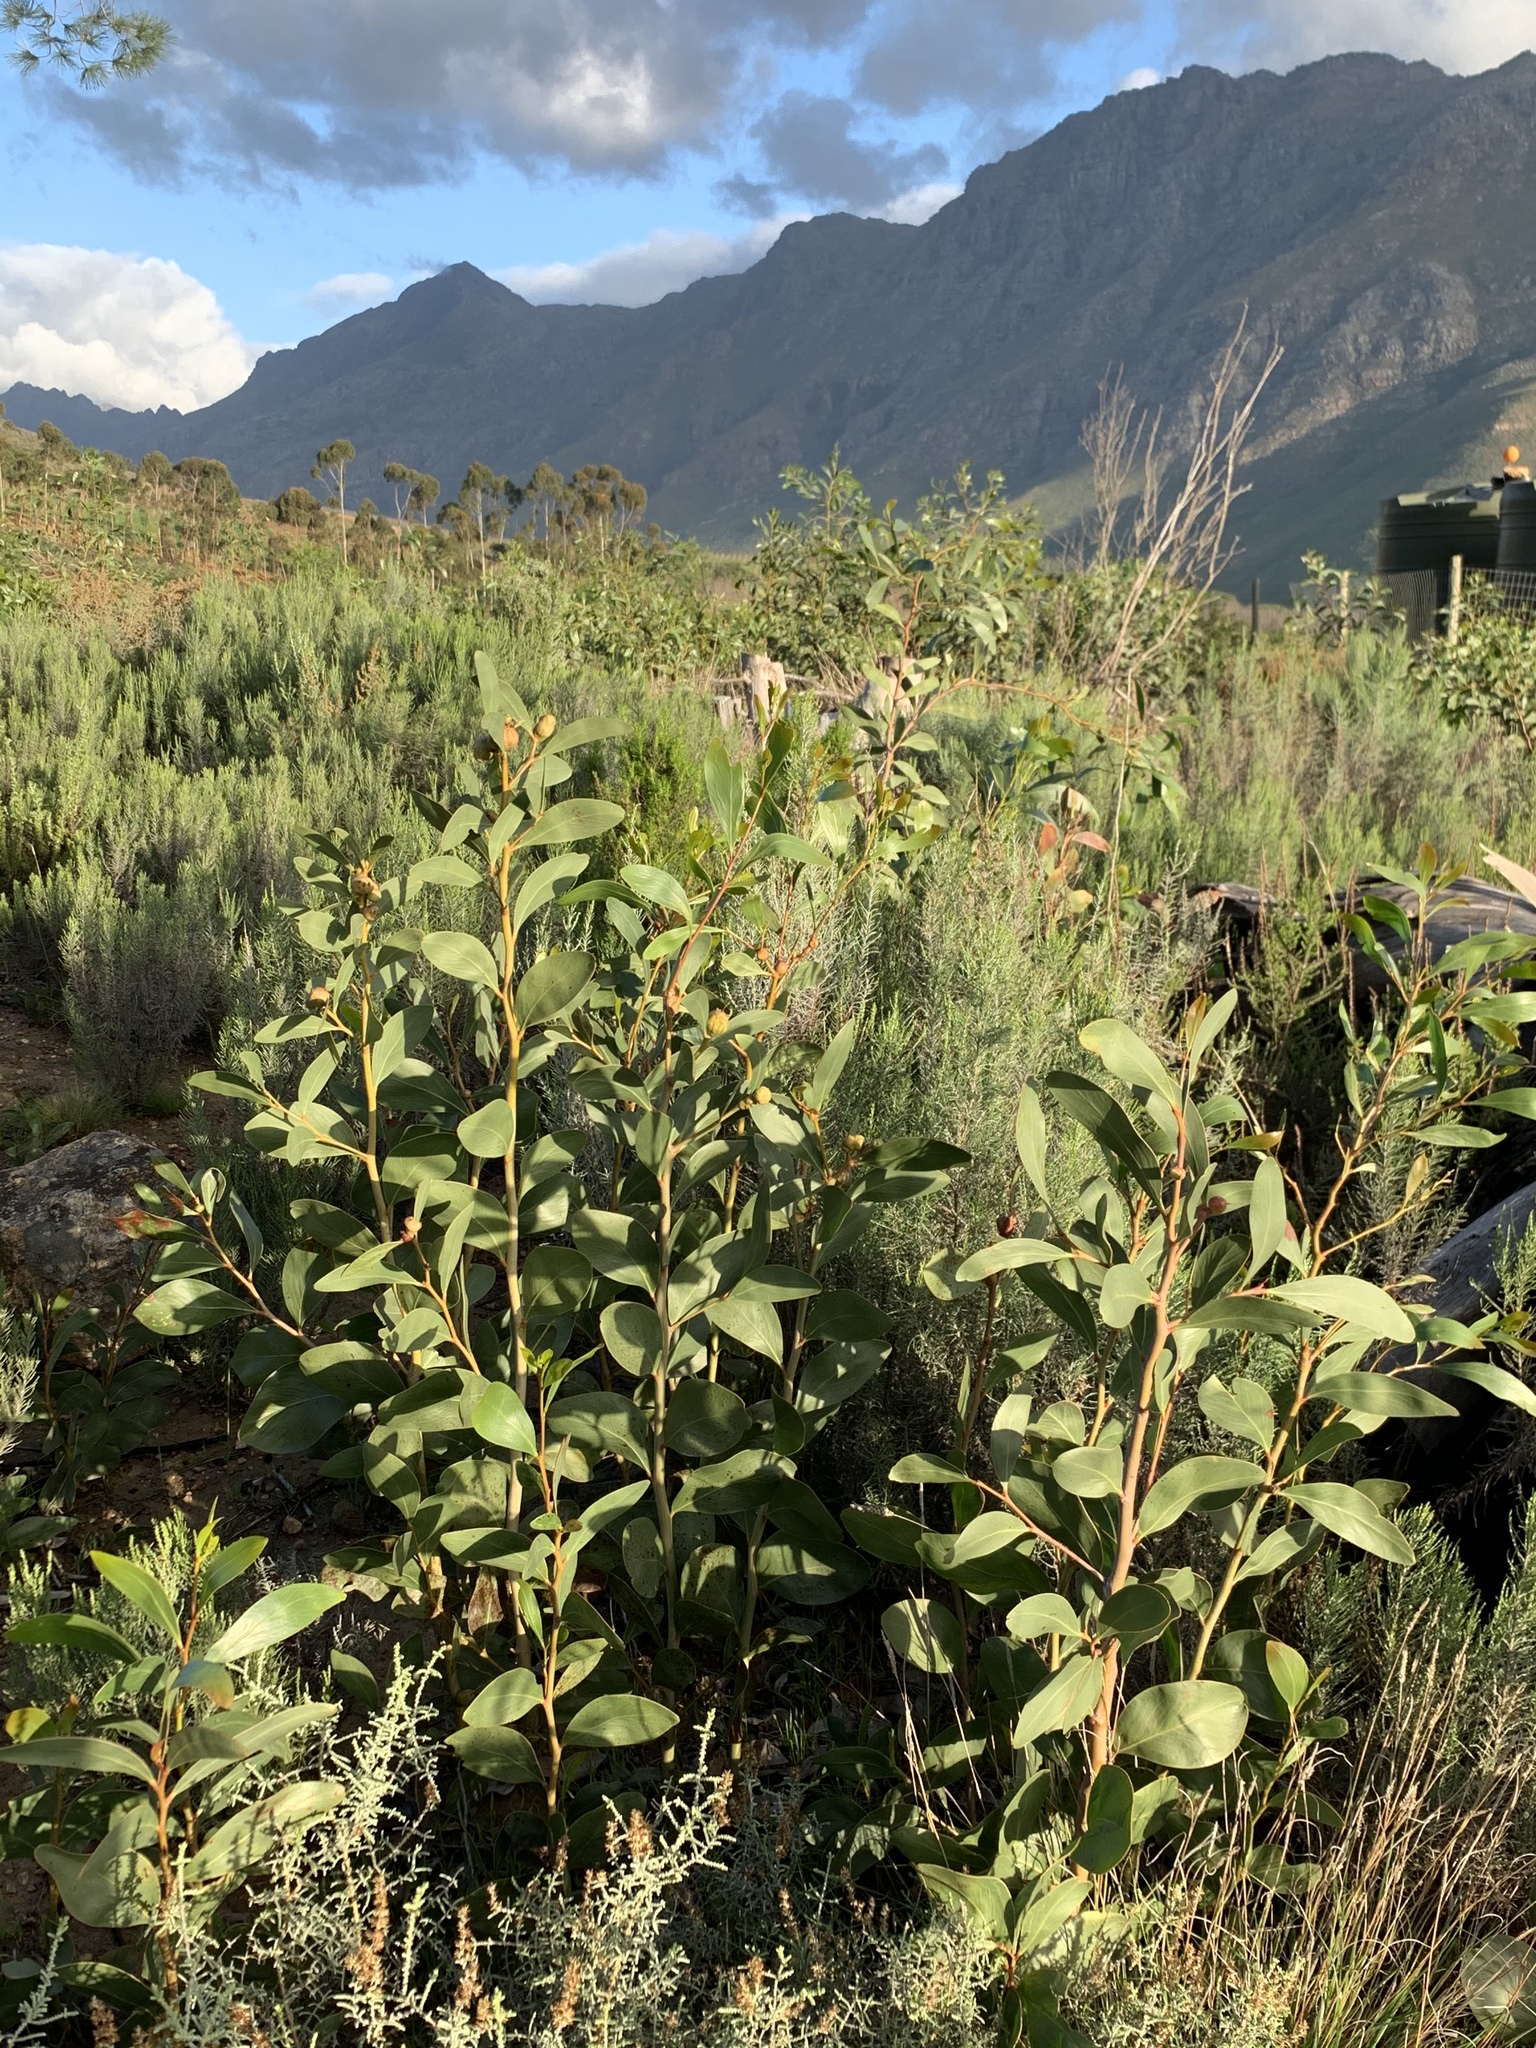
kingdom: Plantae
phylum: Tracheophyta
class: Magnoliopsida
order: Fabales
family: Fabaceae
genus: Acacia
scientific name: Acacia pycnantha
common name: Golden wattle
